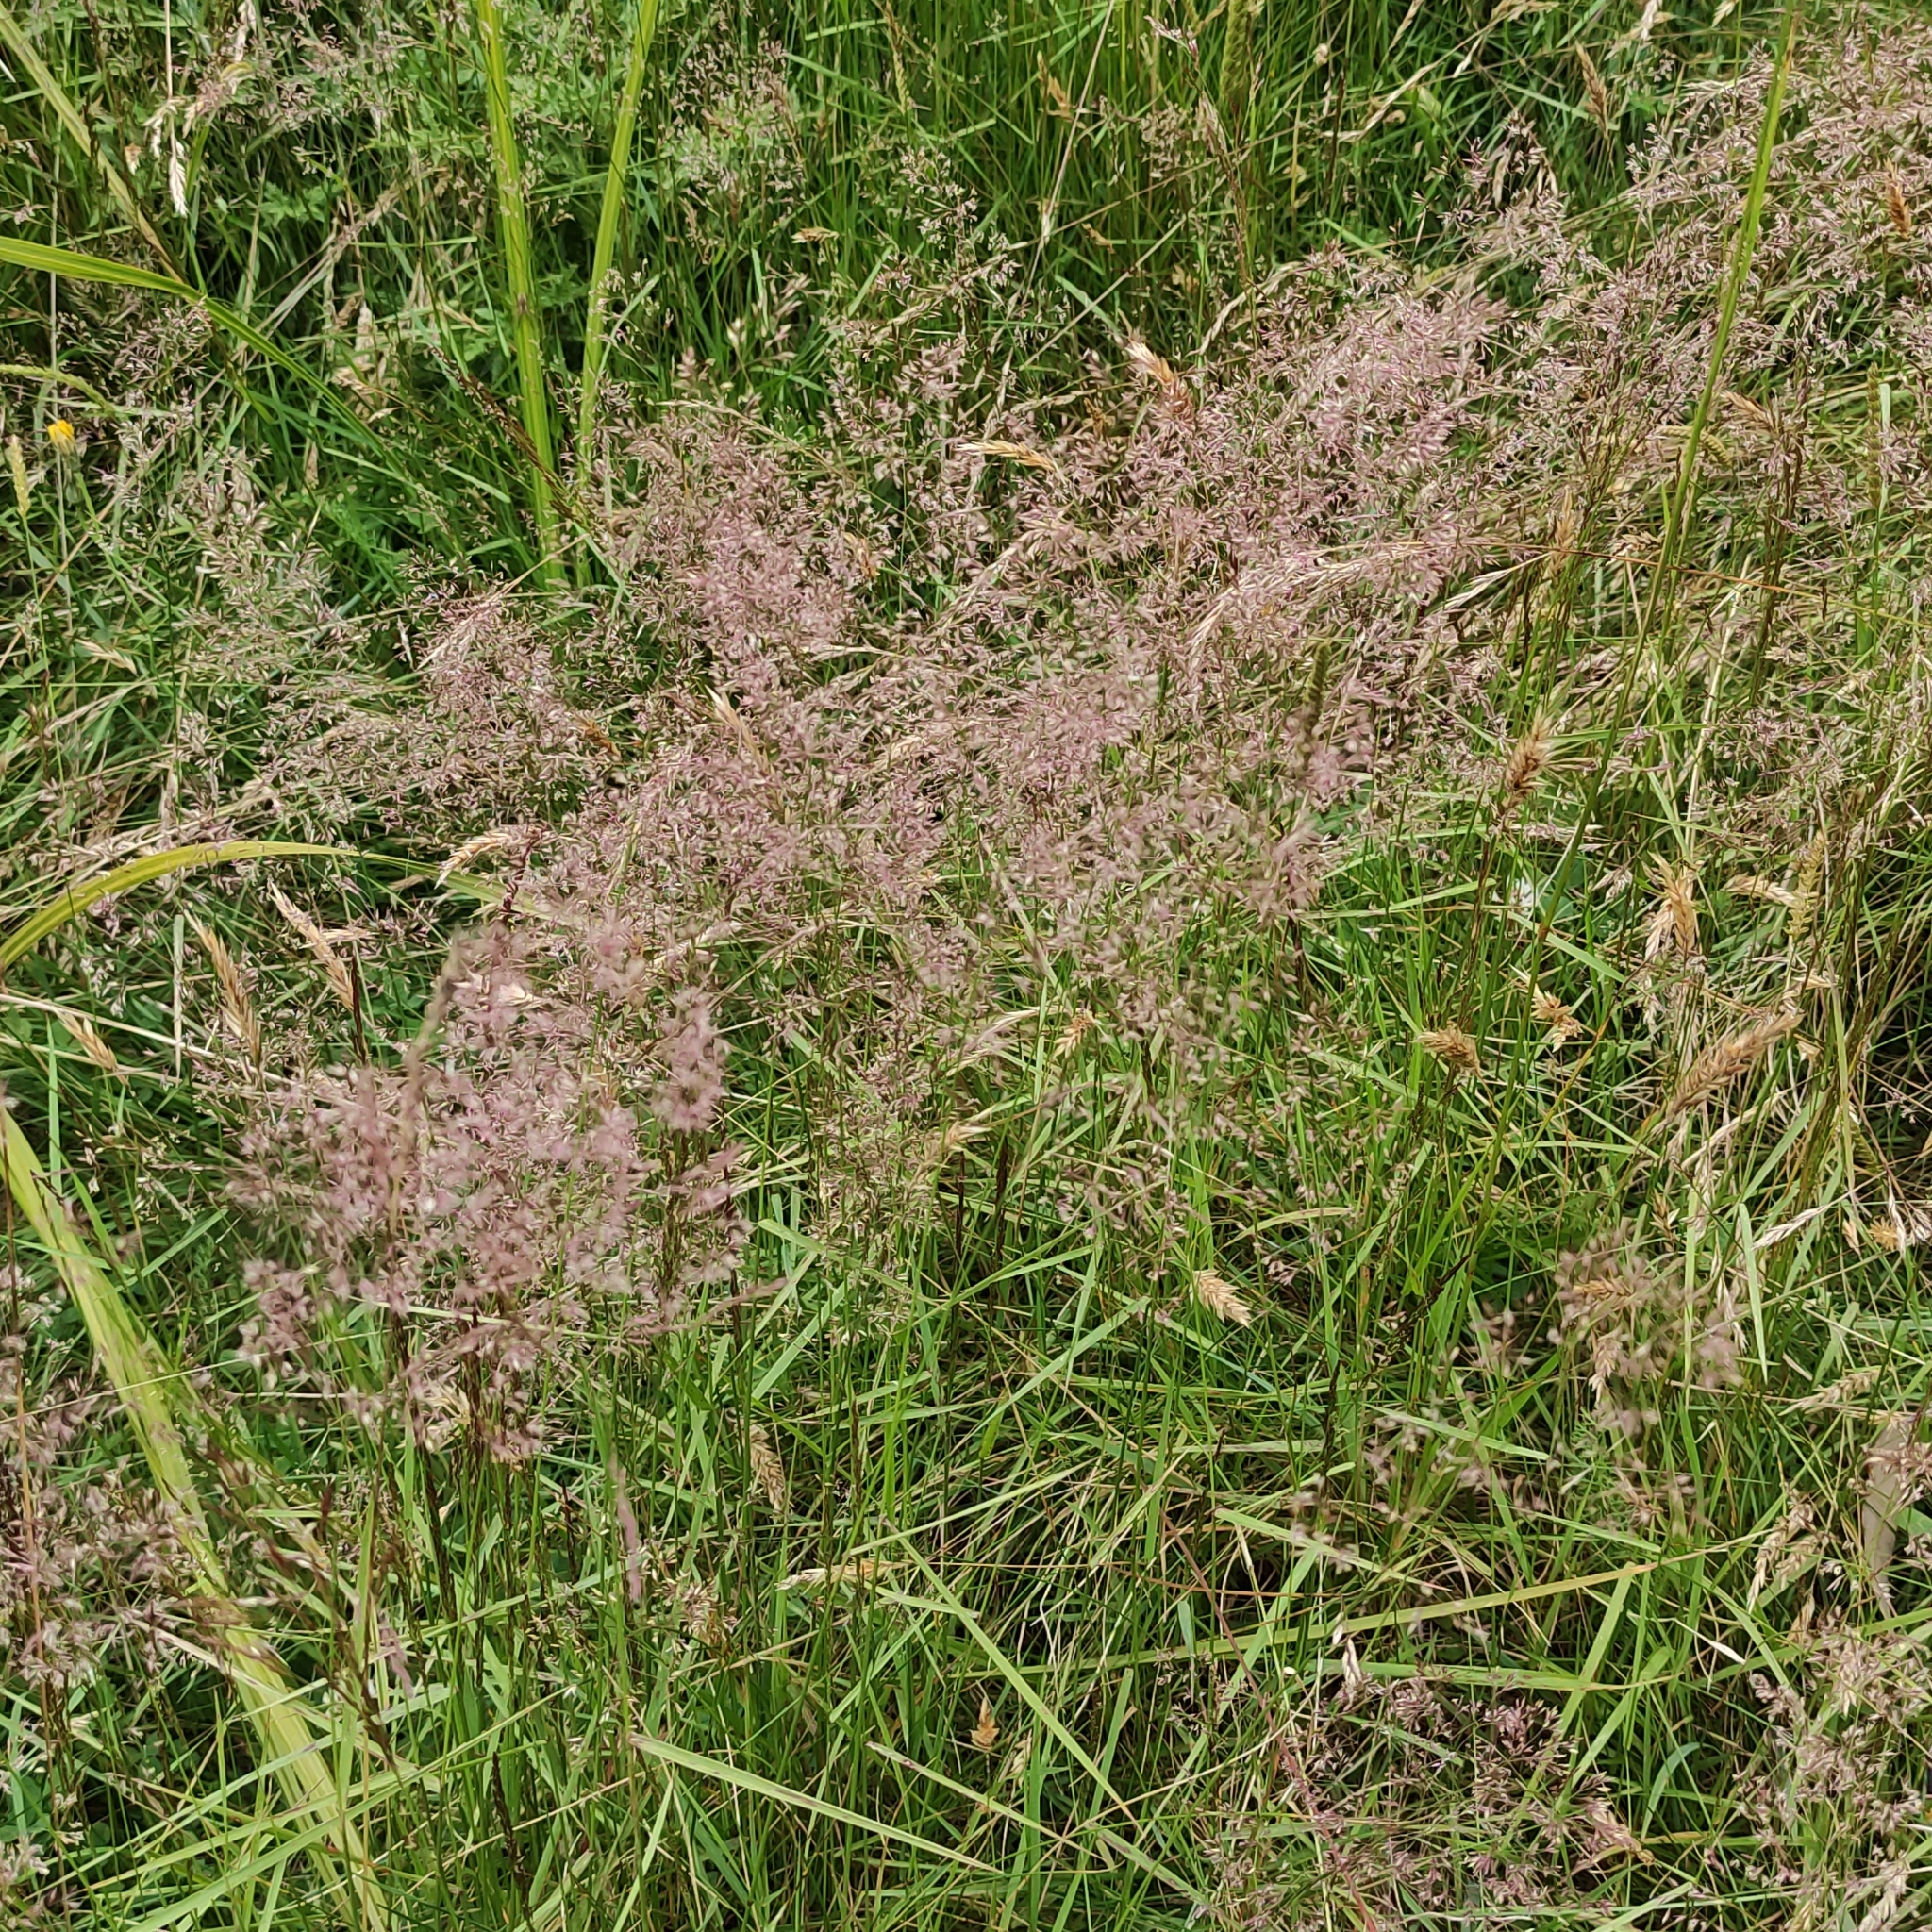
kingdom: Plantae
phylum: Tracheophyta
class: Liliopsida
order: Poales
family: Poaceae
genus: Agrostis
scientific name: Agrostis capillaris
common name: Colonial bentgrass
